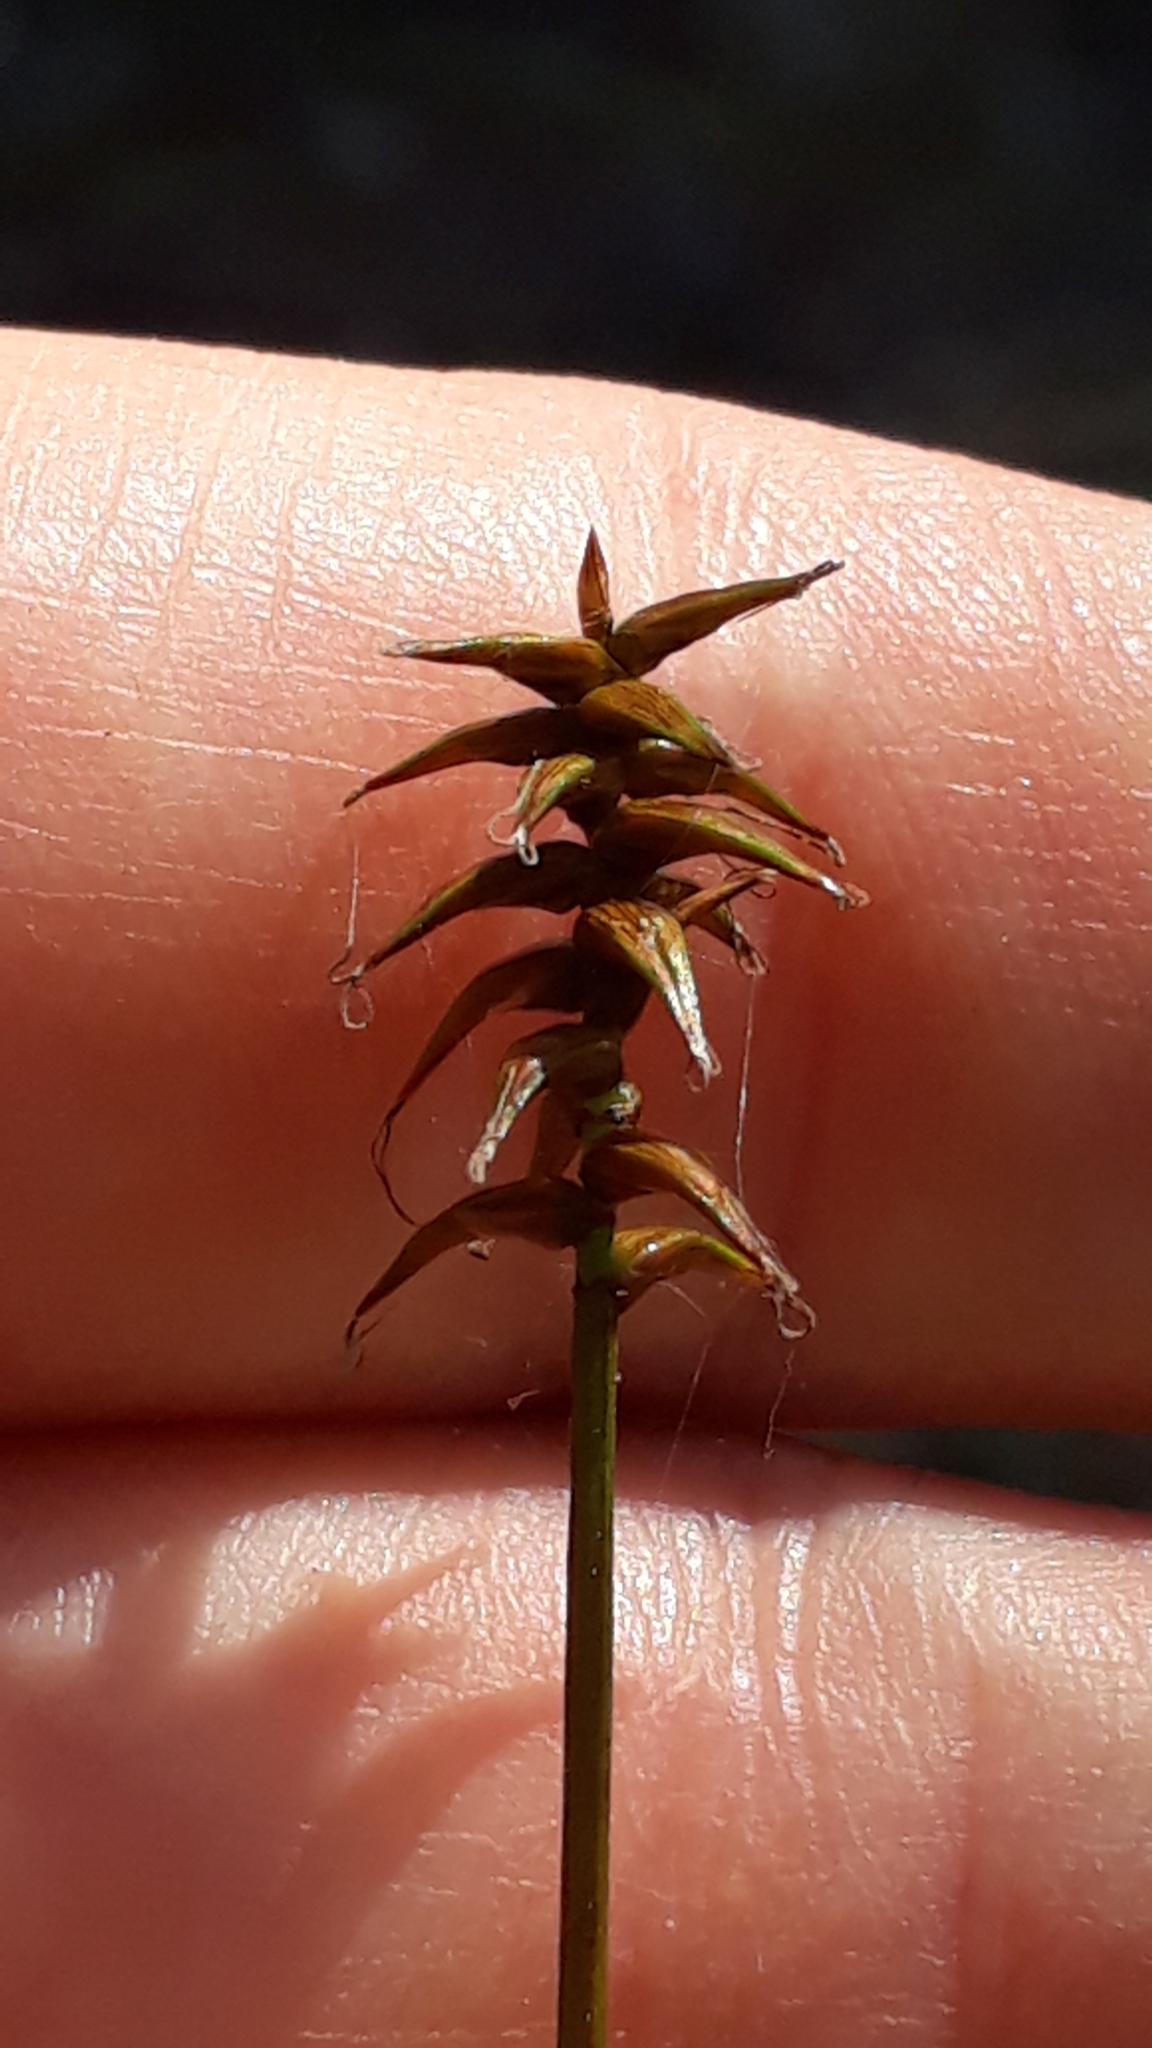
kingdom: Plantae
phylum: Tracheophyta
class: Liliopsida
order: Poales
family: Cyperaceae
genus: Carex
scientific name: Carex davalliana
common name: Davall's sedge
